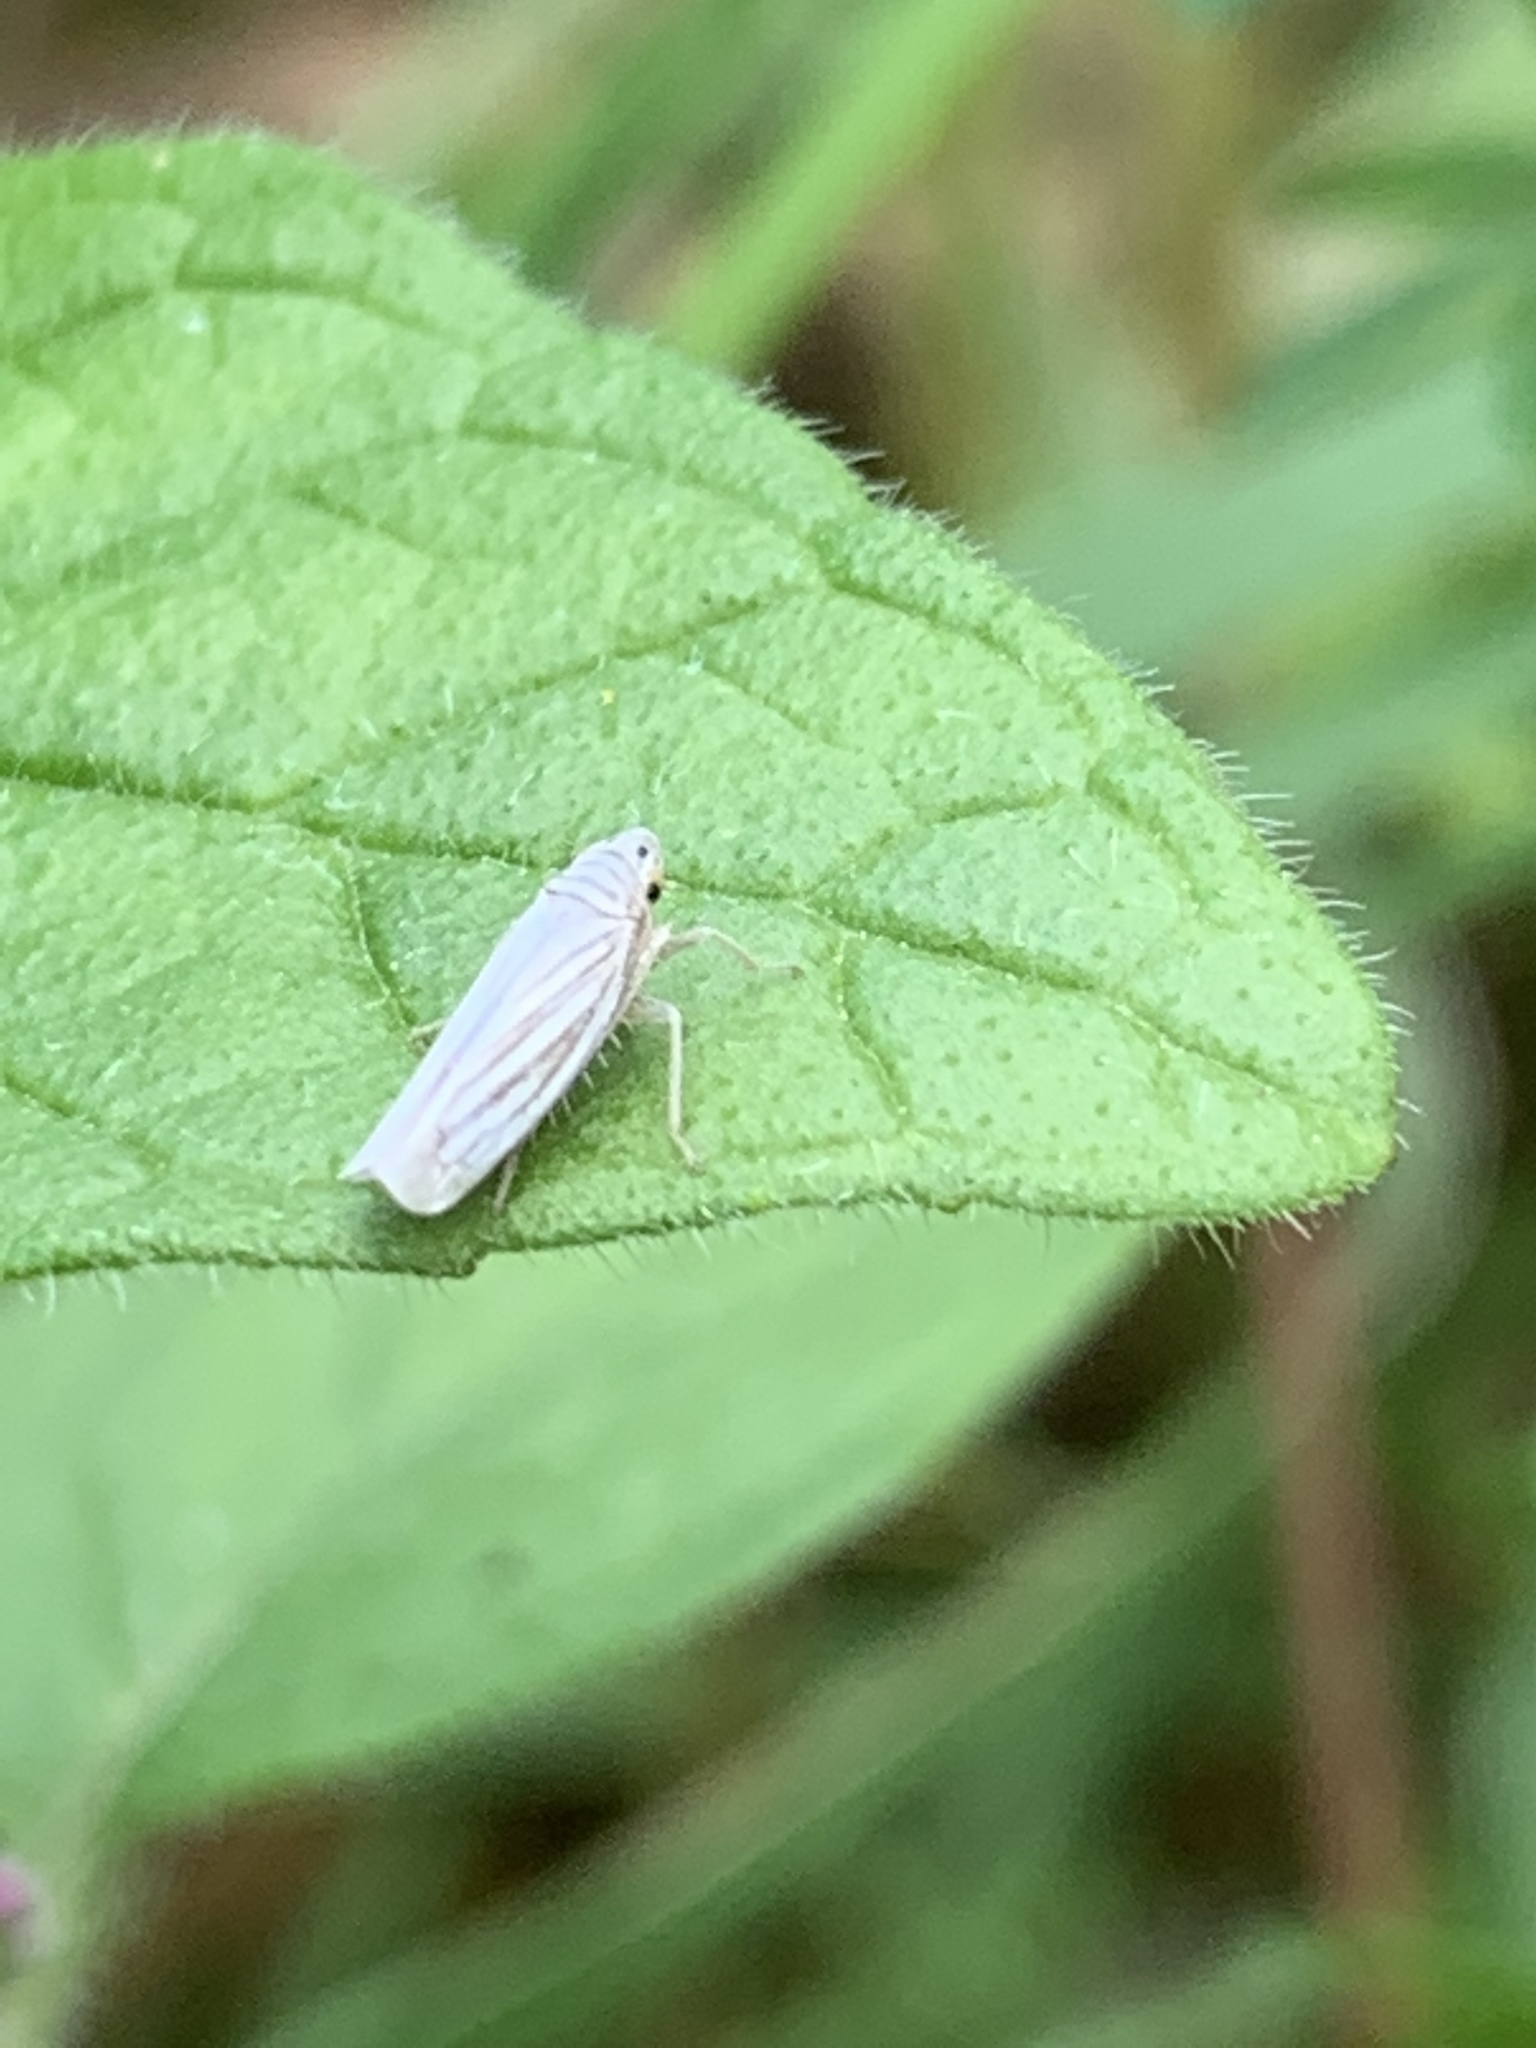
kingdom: Animalia
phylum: Arthropoda
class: Insecta
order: Hemiptera
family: Cicadellidae
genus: Provancherana
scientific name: Provancherana tripunctata
